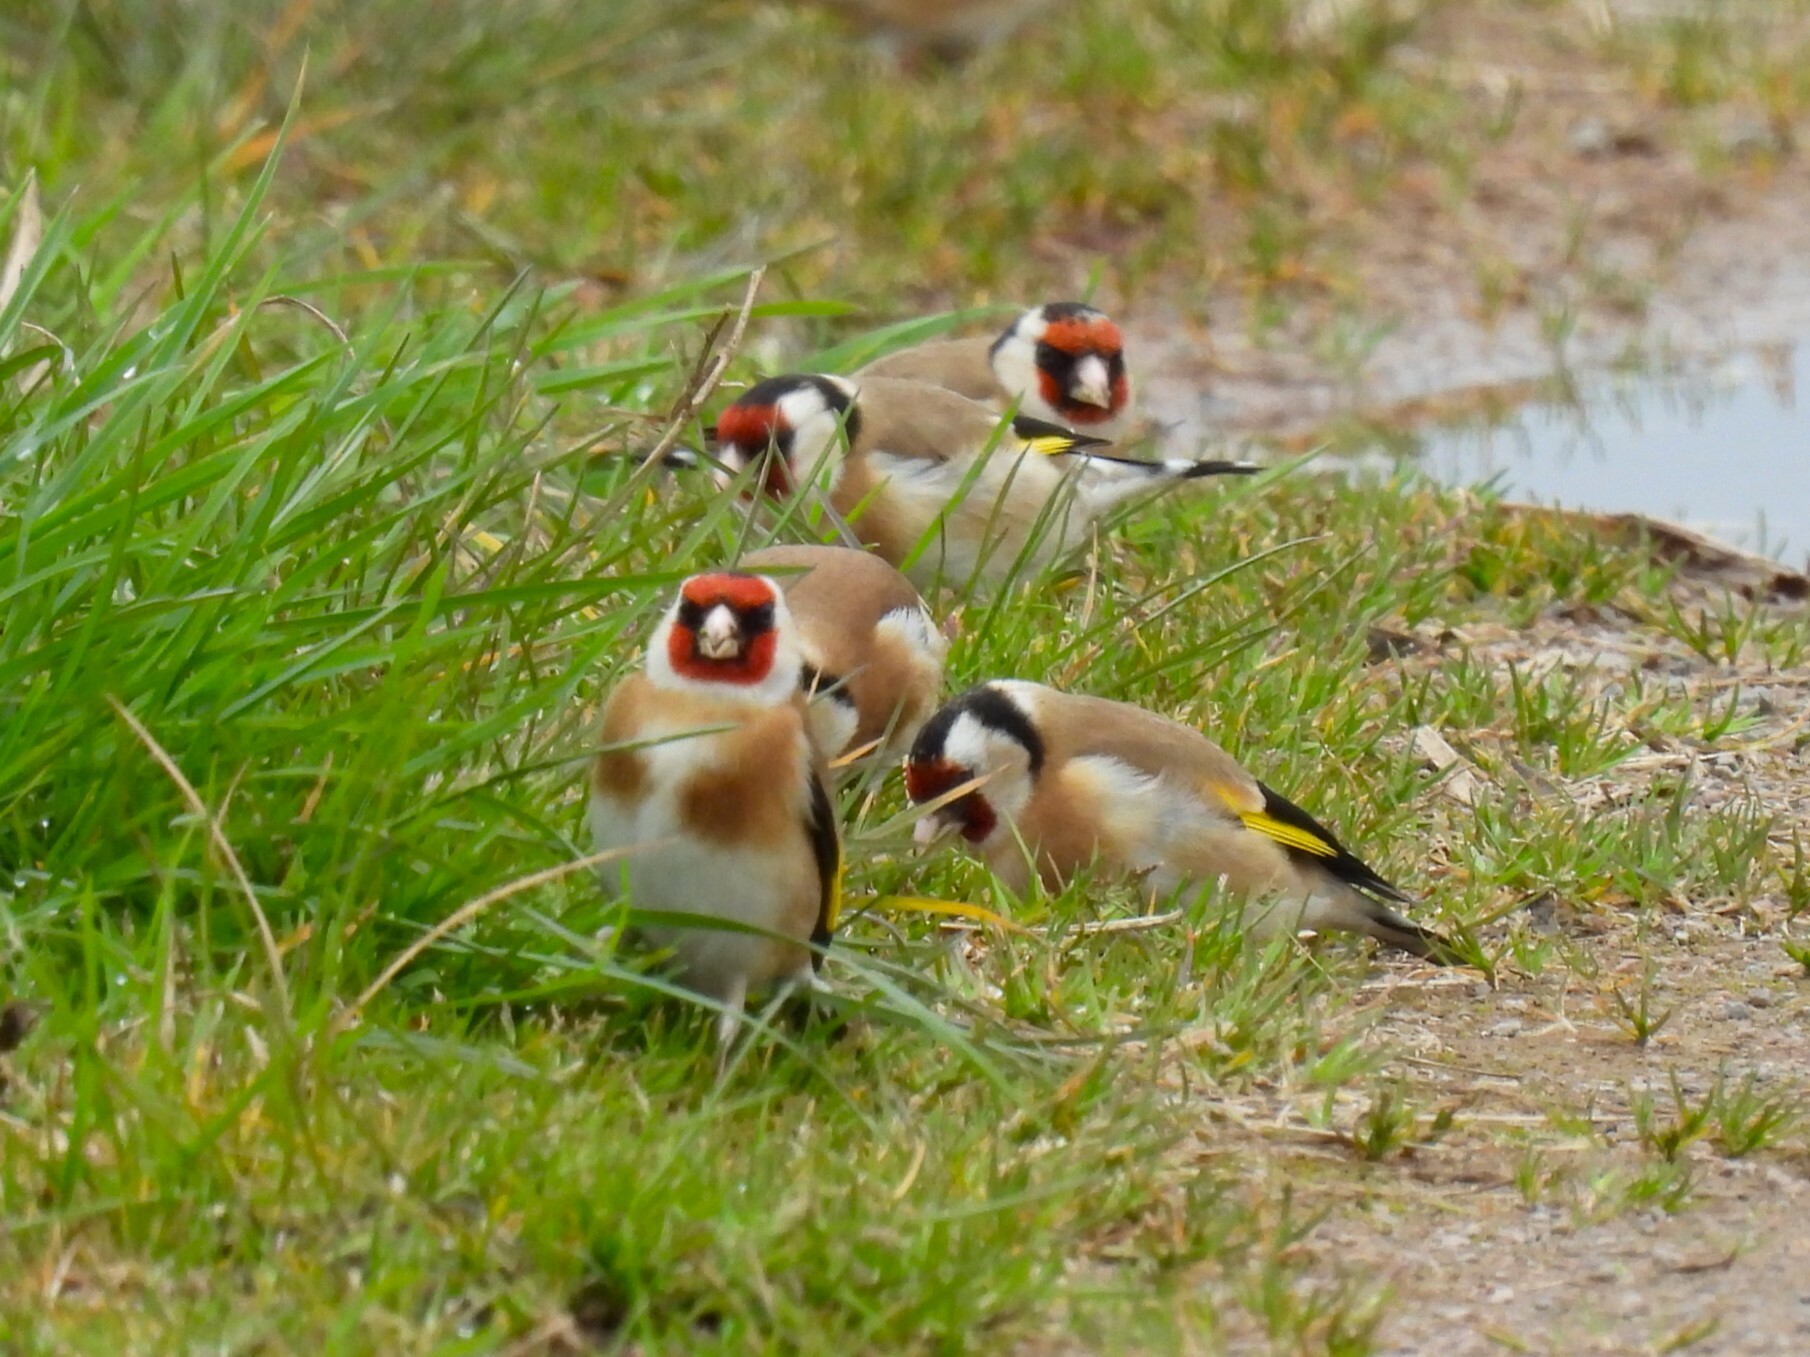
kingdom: Animalia
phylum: Chordata
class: Aves
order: Passeriformes
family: Fringillidae
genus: Carduelis
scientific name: Carduelis carduelis
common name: European goldfinch
